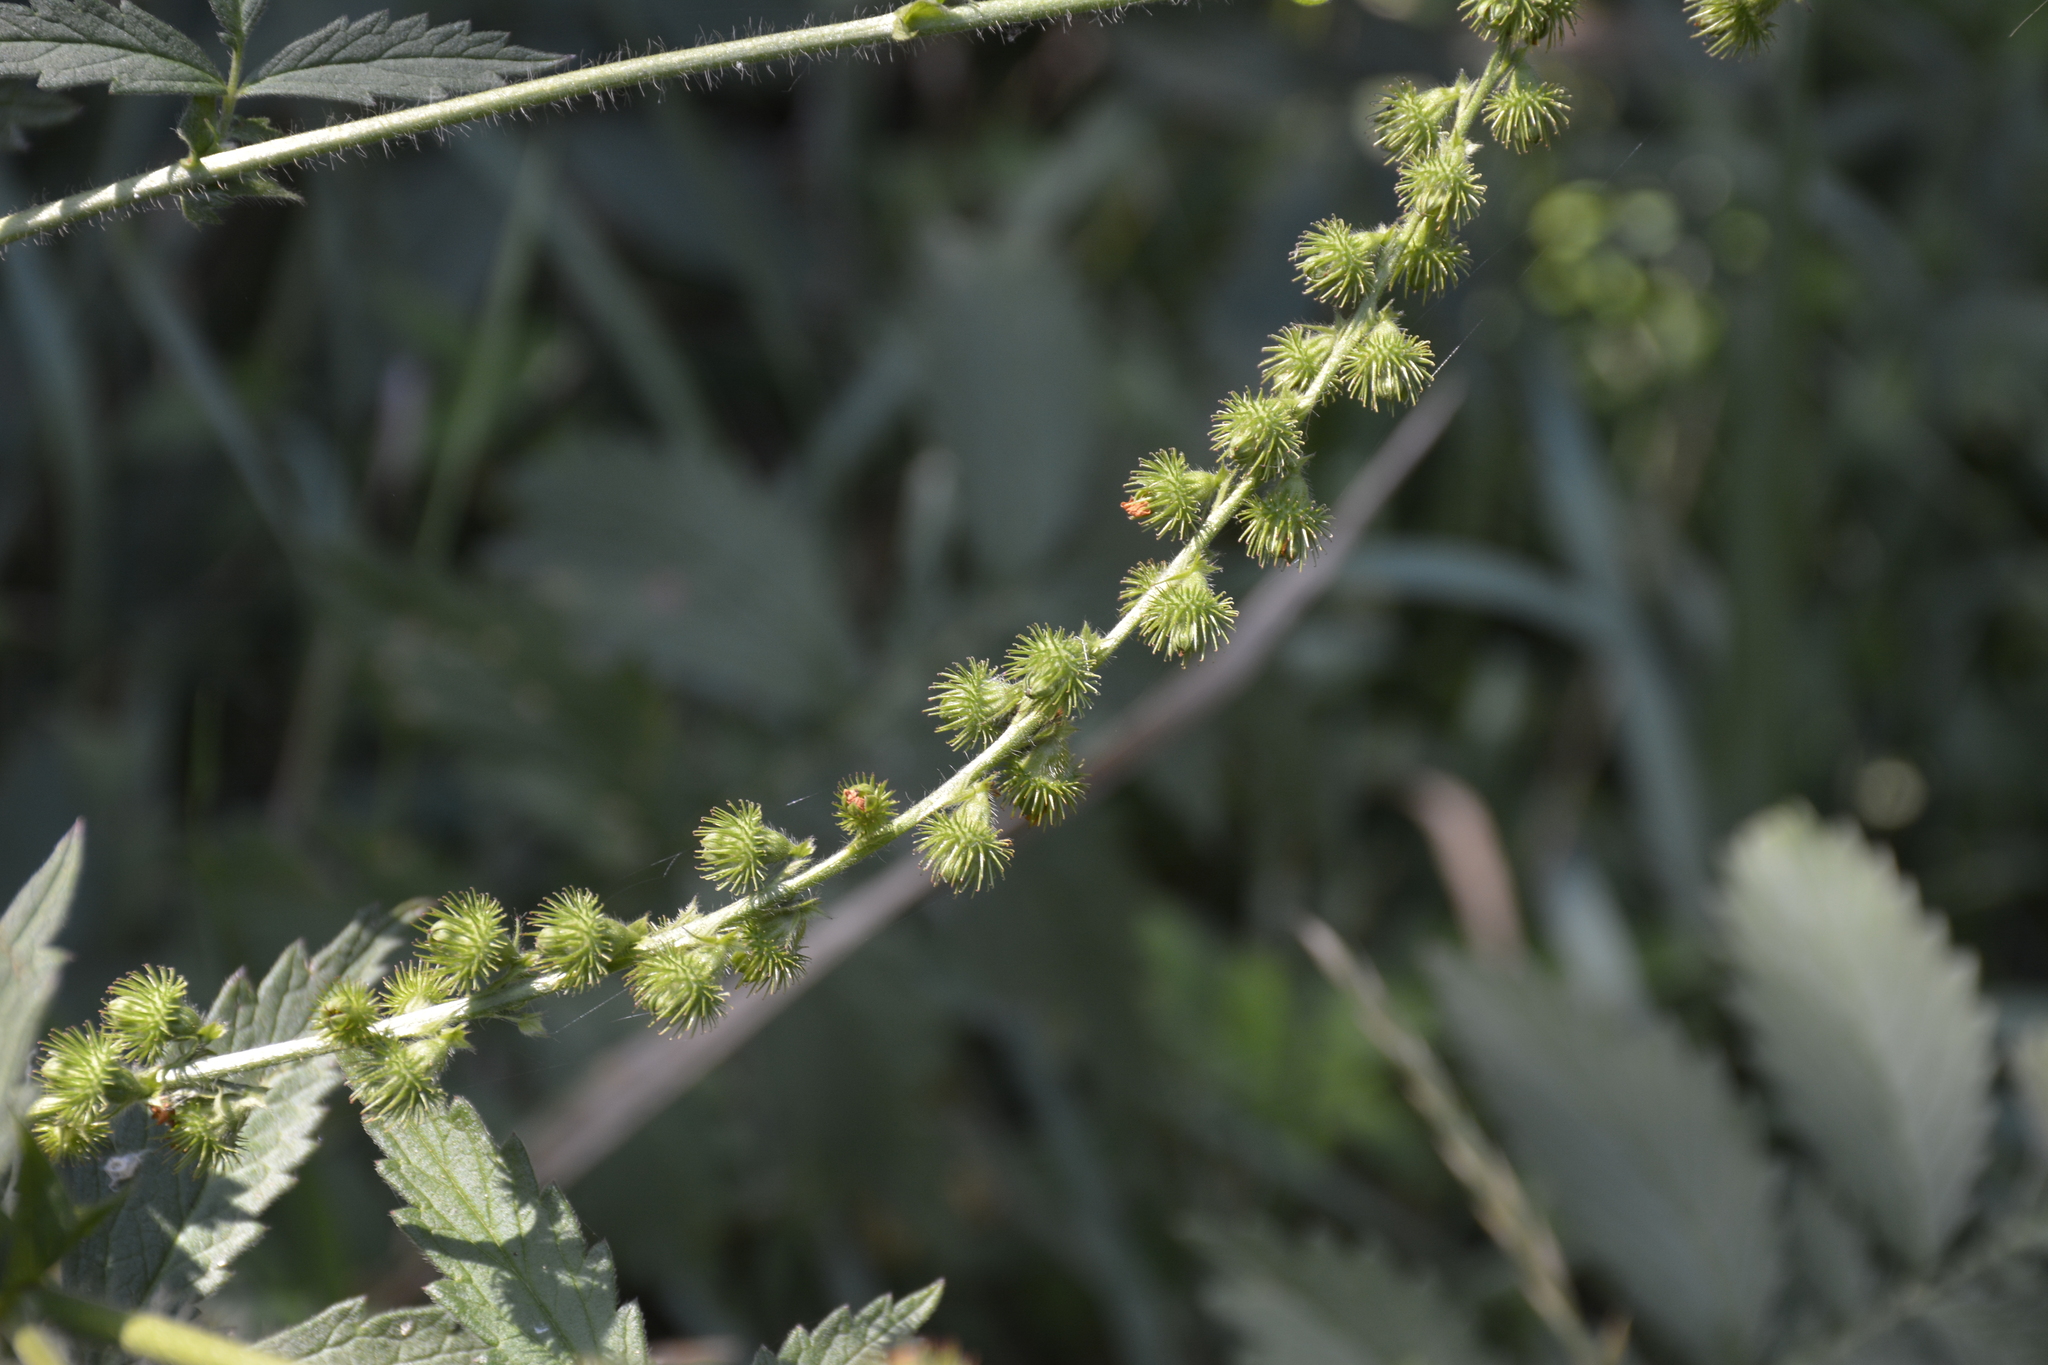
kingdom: Plantae
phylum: Tracheophyta
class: Magnoliopsida
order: Rosales
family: Rosaceae
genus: Agrimonia
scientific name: Agrimonia pilosa
